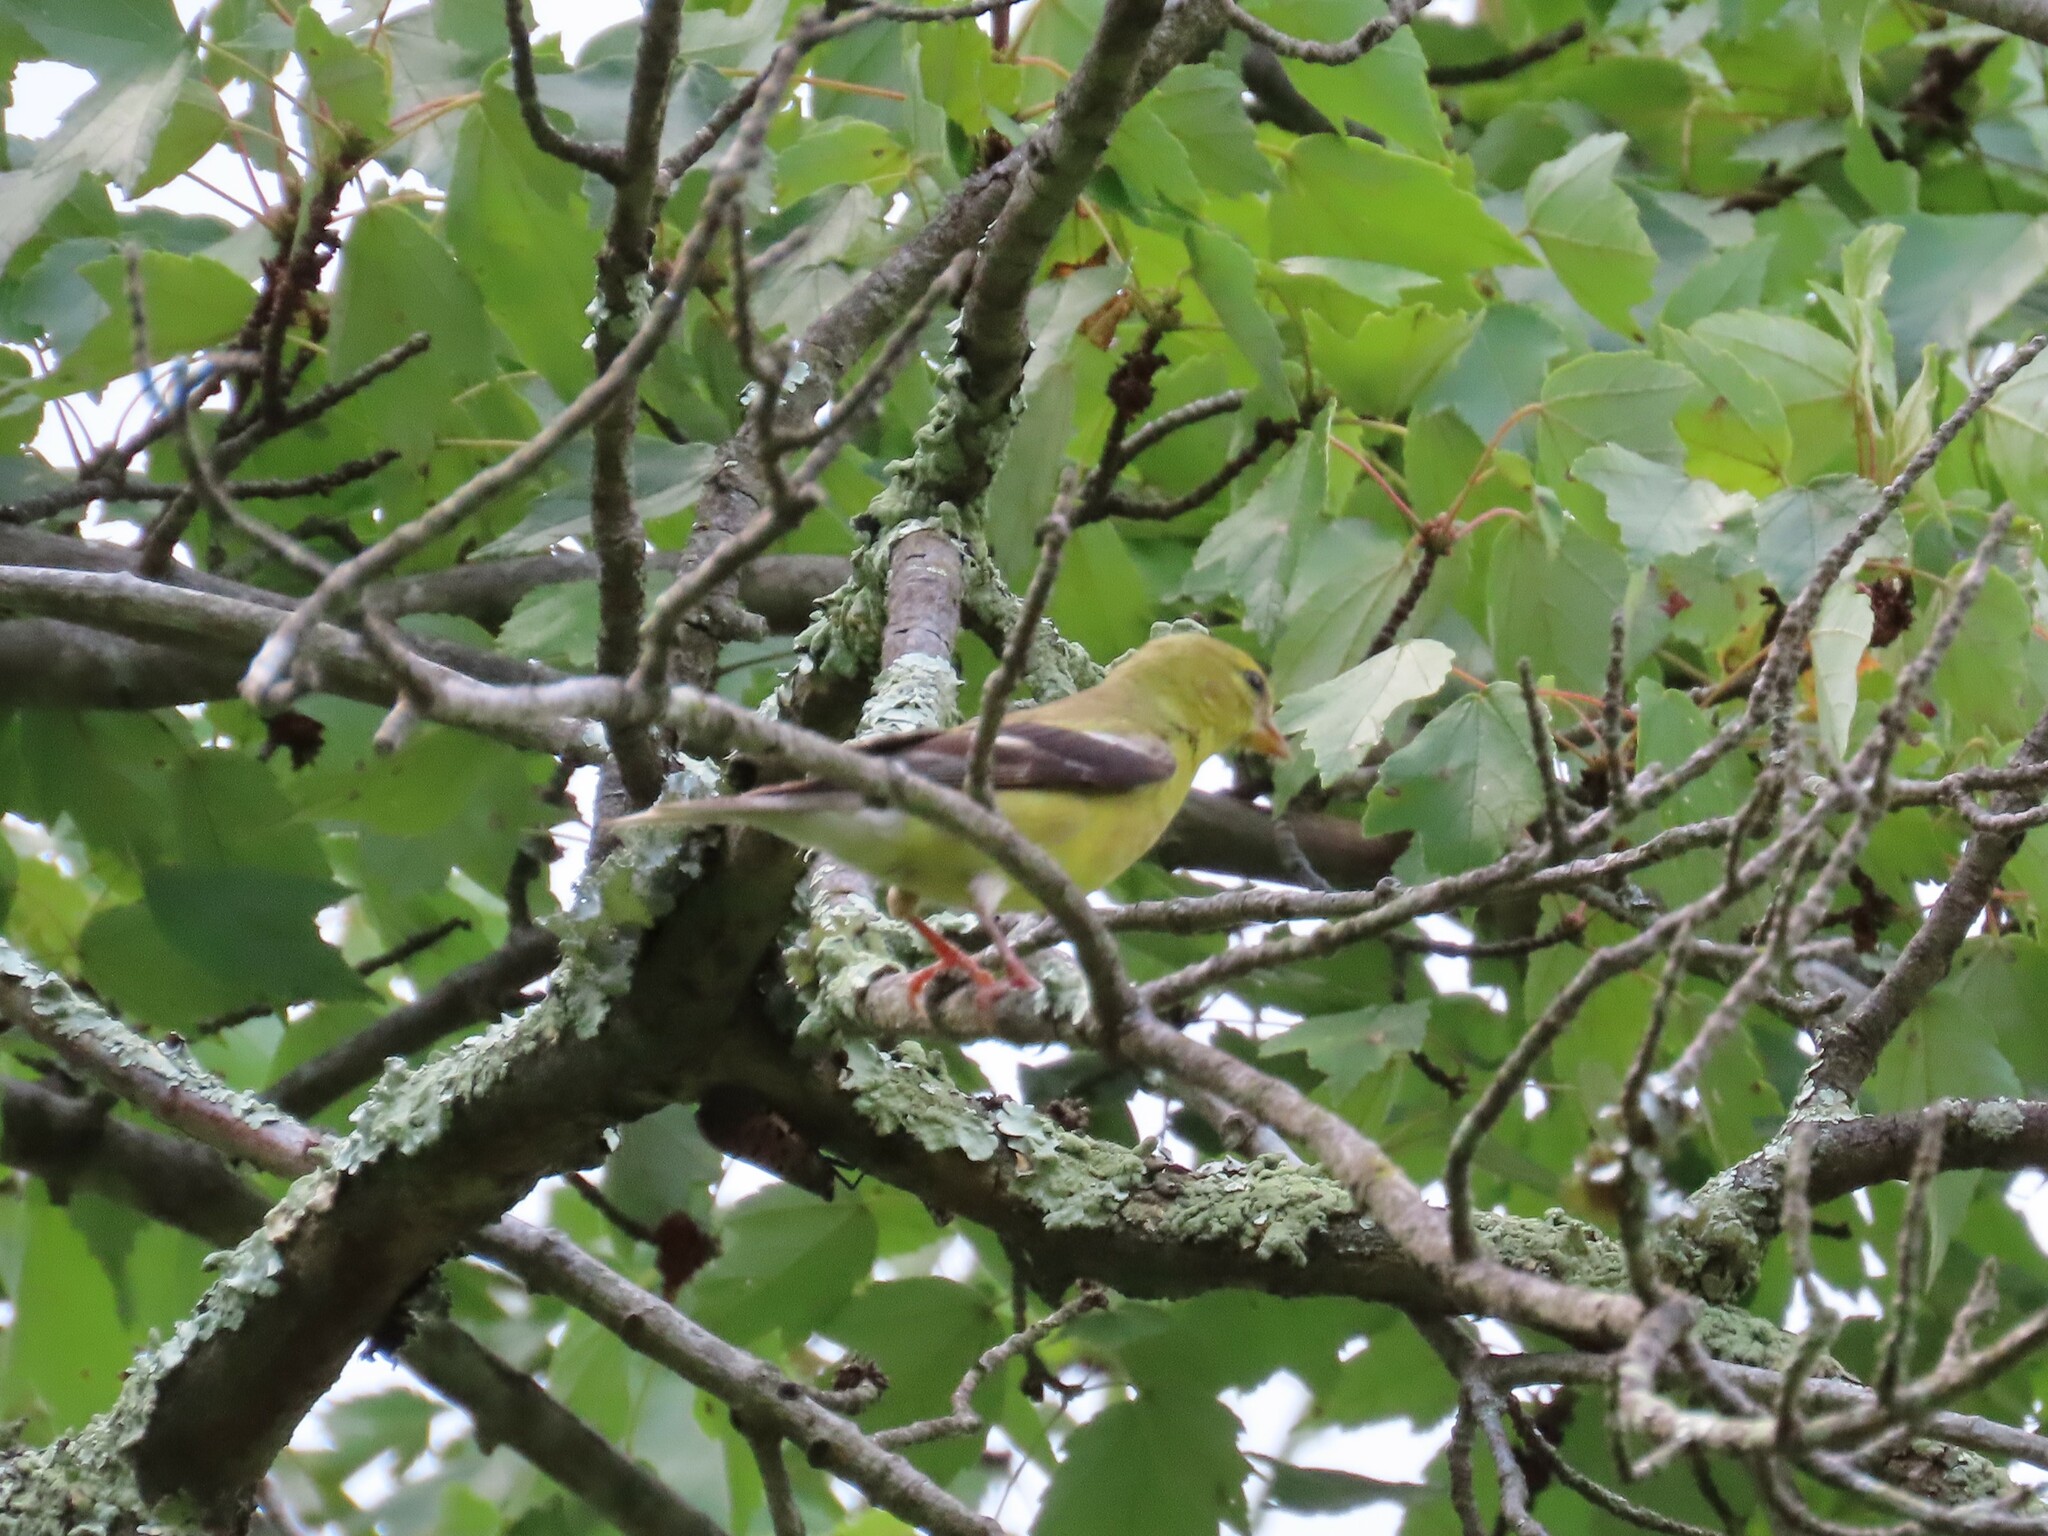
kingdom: Animalia
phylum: Chordata
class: Aves
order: Passeriformes
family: Fringillidae
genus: Spinus
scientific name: Spinus tristis
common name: American goldfinch
